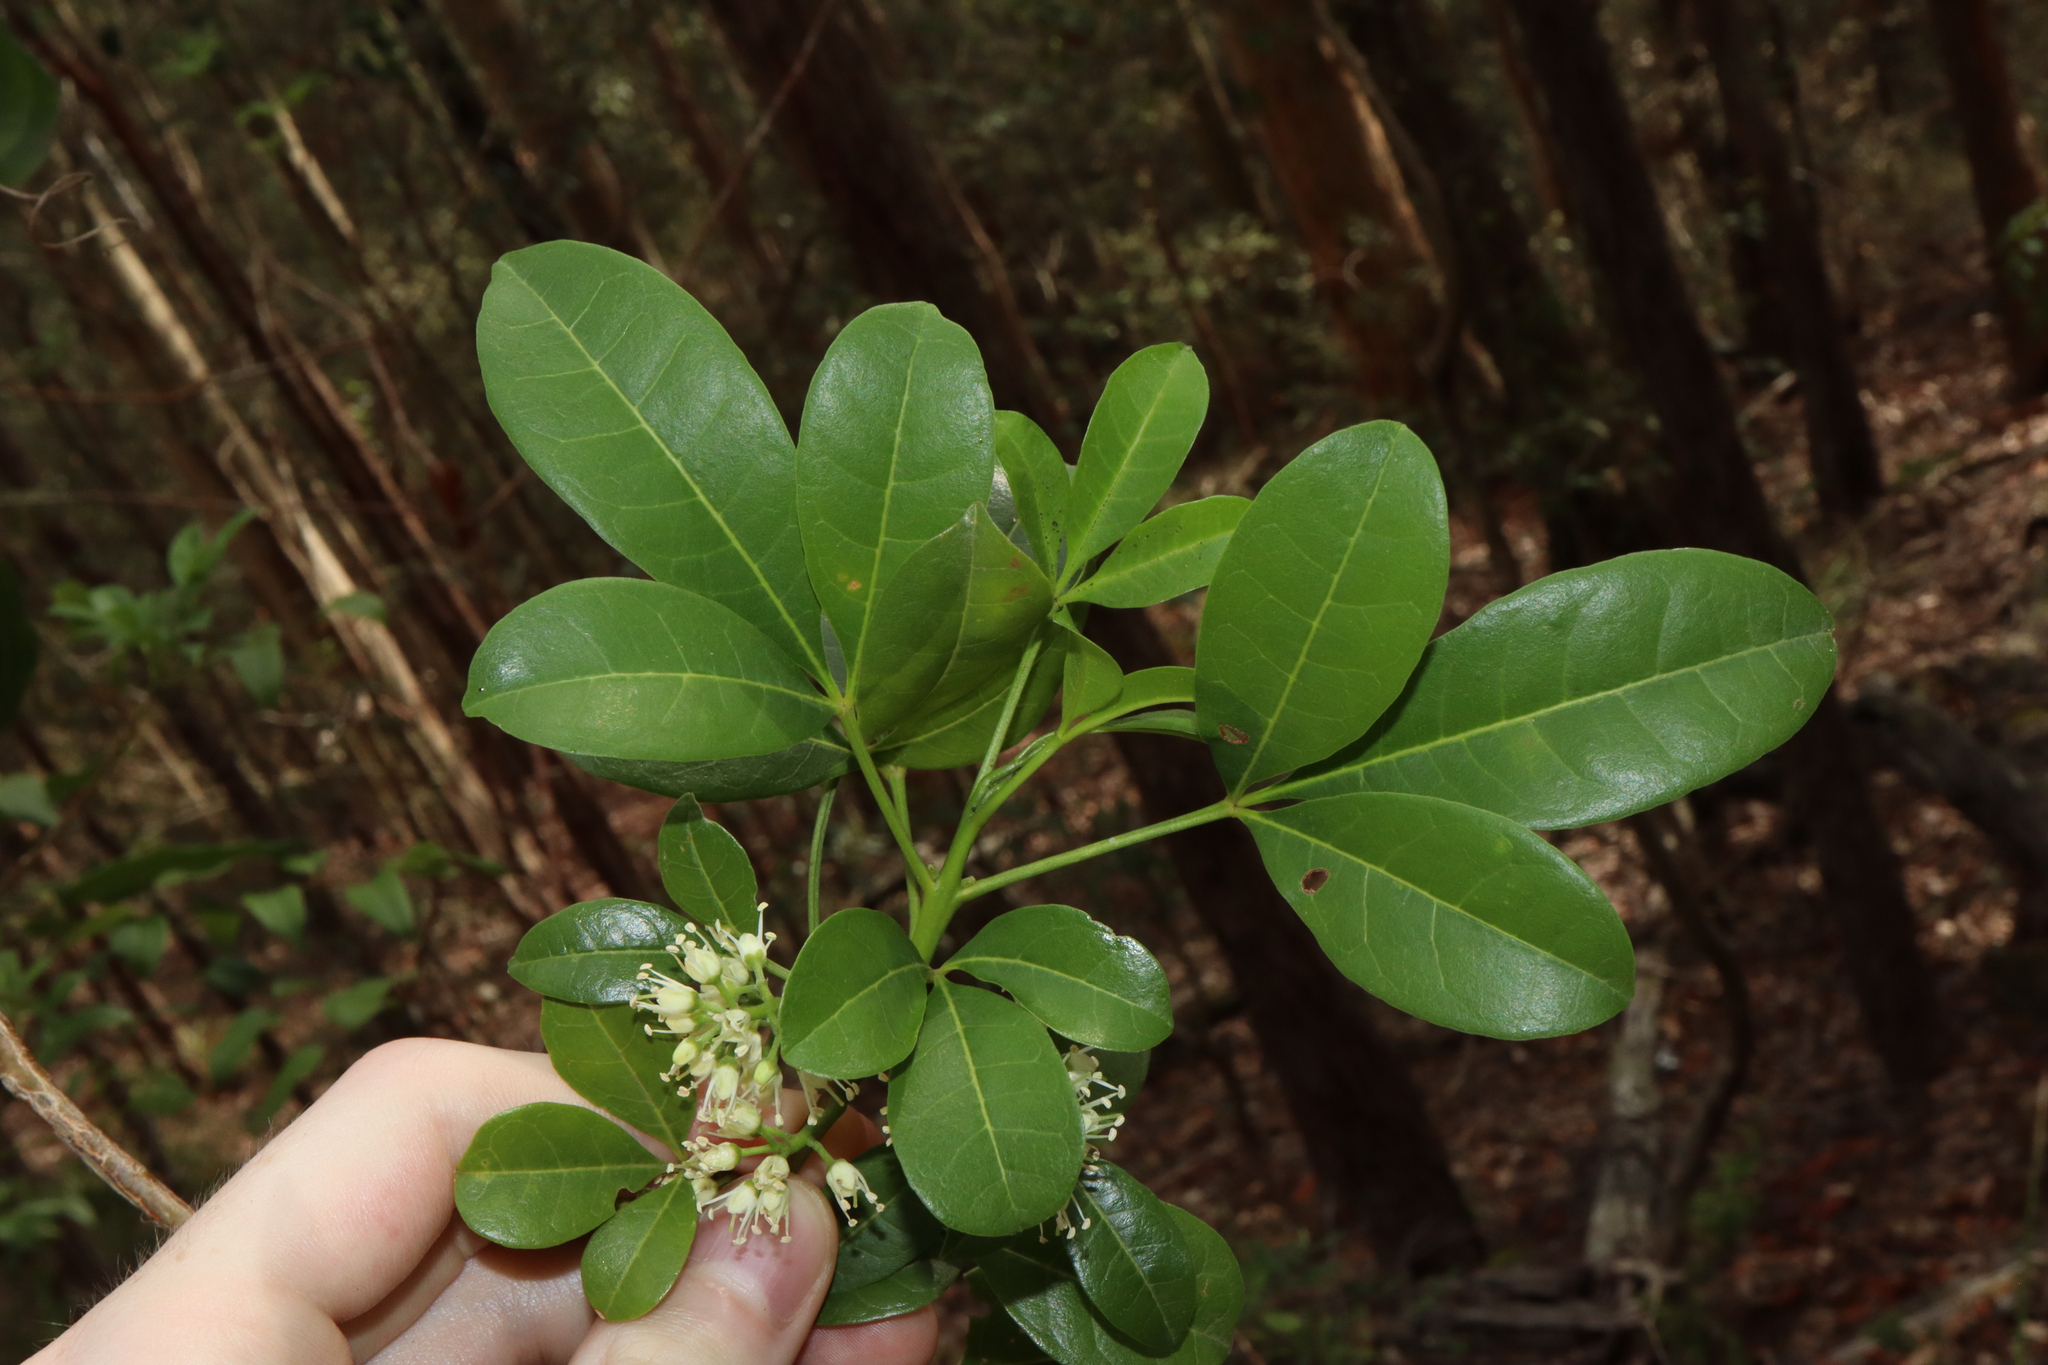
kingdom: Plantae
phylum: Tracheophyta
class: Magnoliopsida
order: Sapindales
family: Rutaceae
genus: Melicope
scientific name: Melicope micrococca
